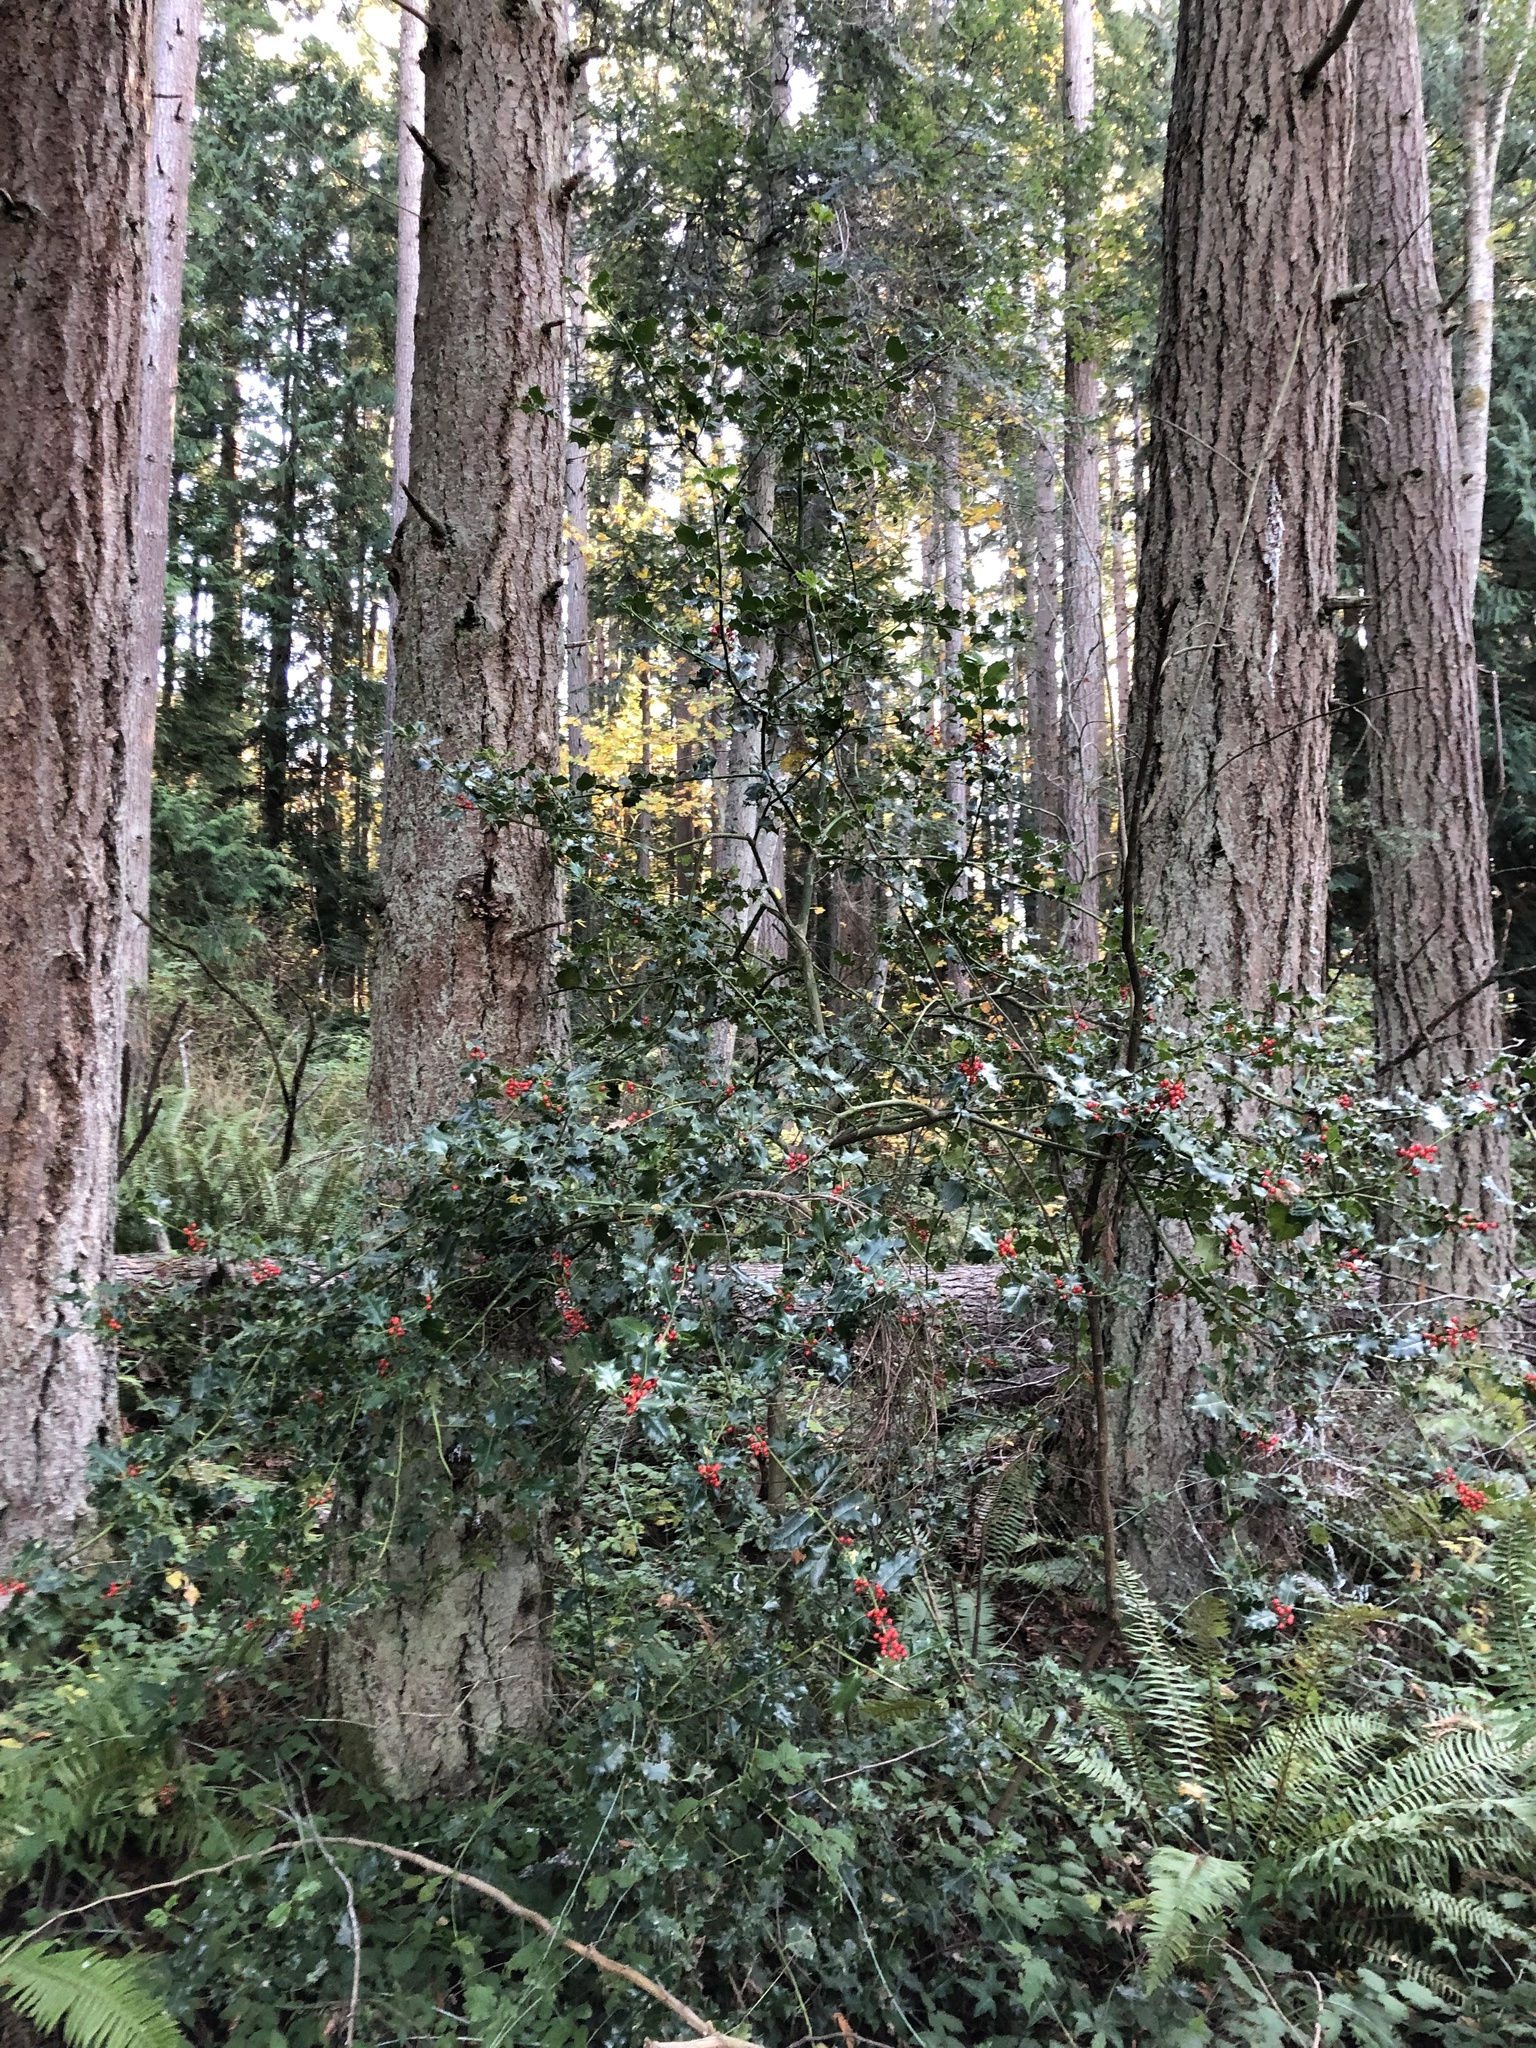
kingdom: Plantae
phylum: Tracheophyta
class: Magnoliopsida
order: Aquifoliales
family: Aquifoliaceae
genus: Ilex
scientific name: Ilex aquifolium
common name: English holly
